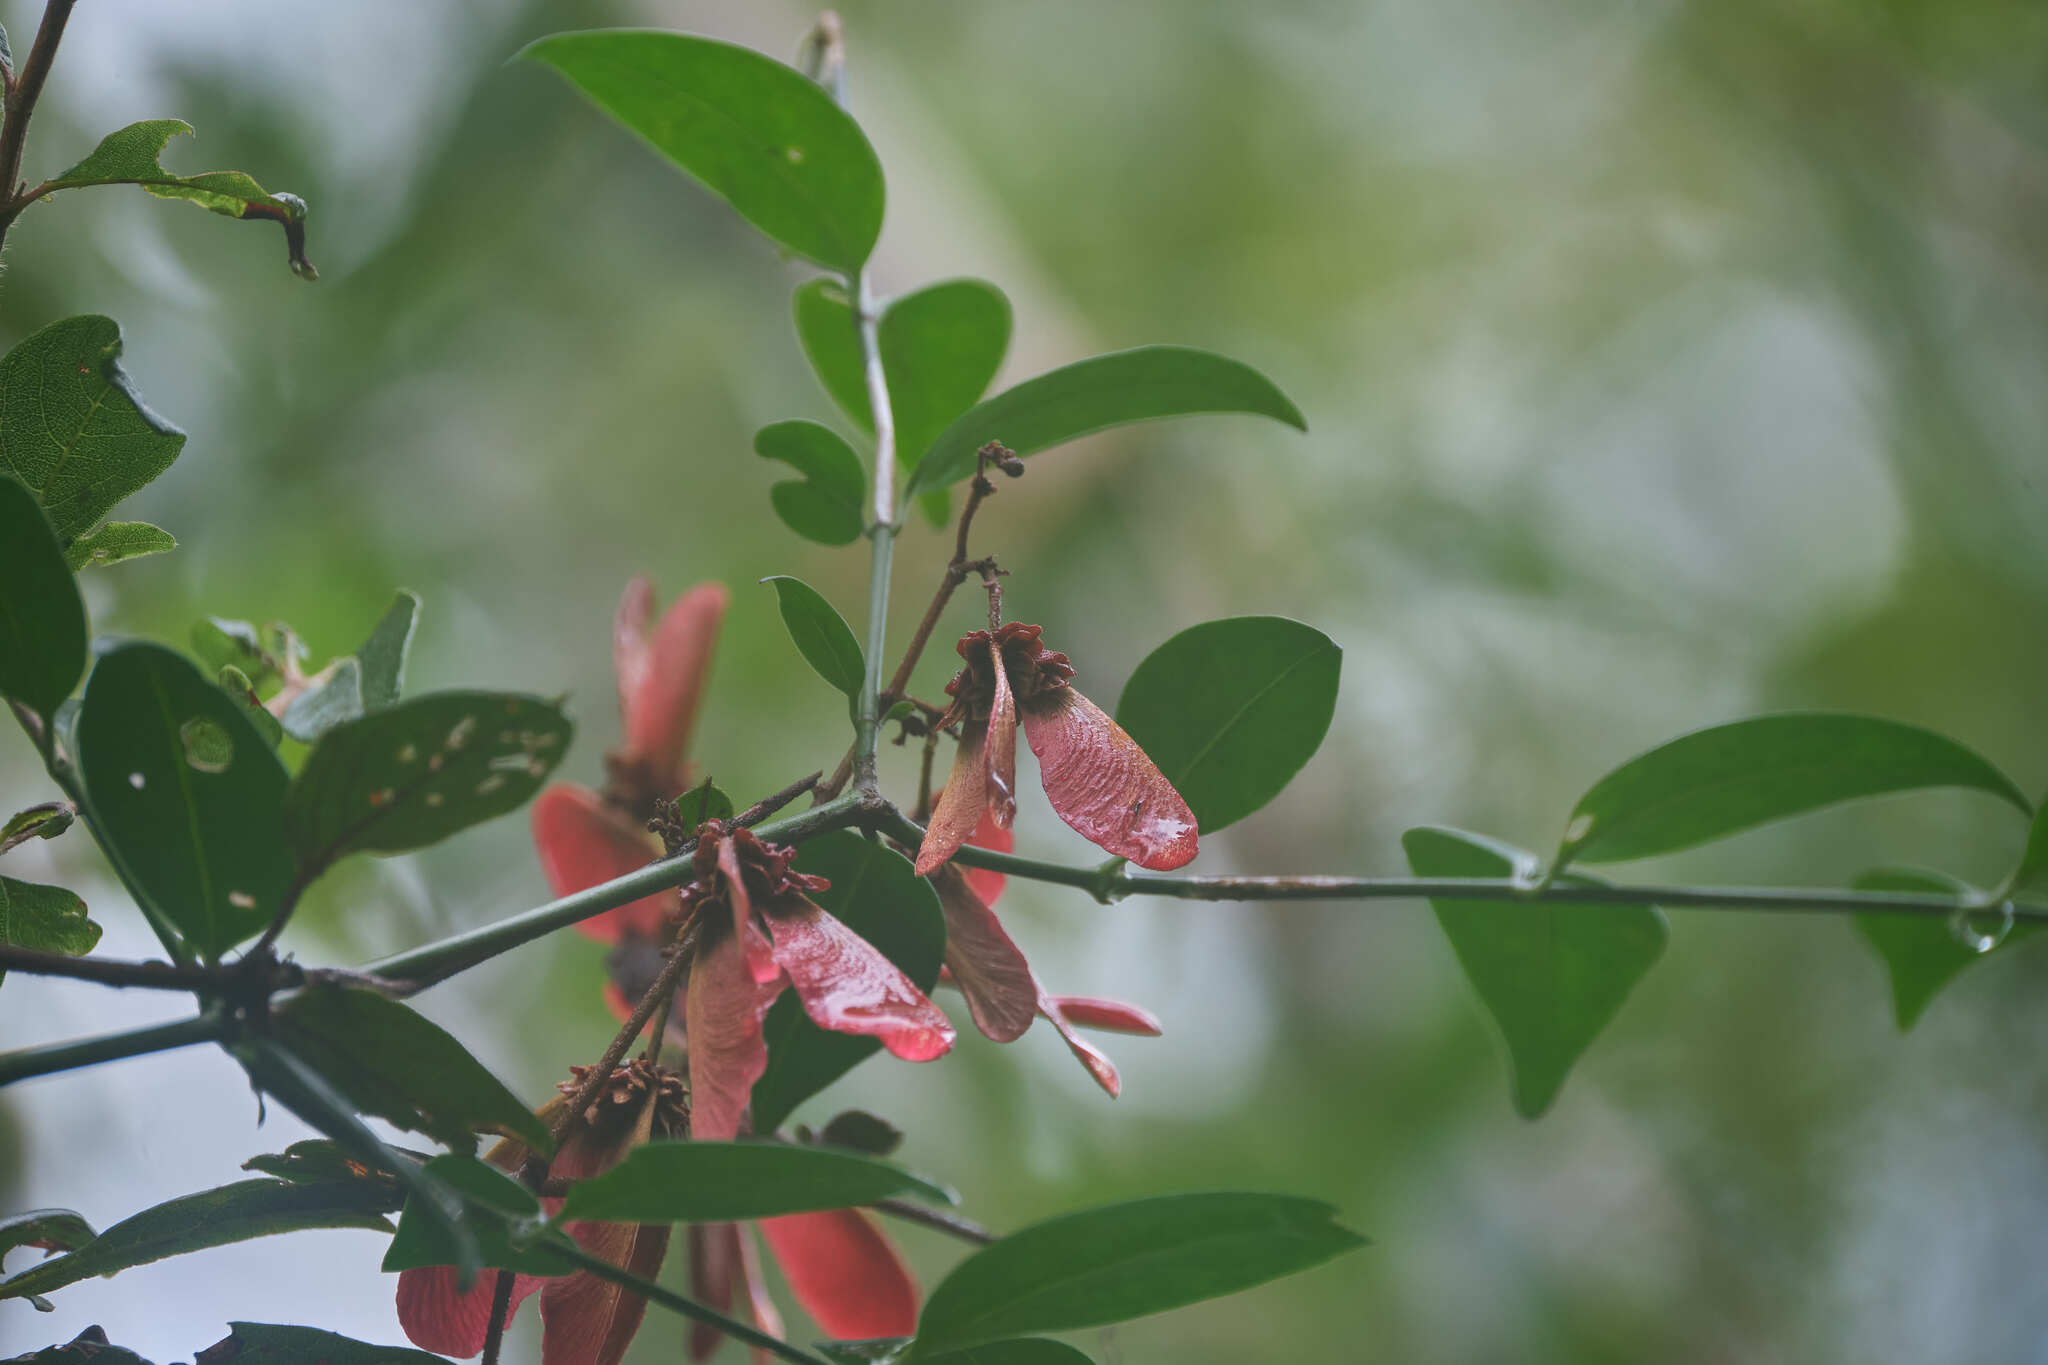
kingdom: Plantae
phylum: Tracheophyta
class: Magnoliopsida
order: Malpighiales
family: Malpighiaceae
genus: Heteropterys
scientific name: Heteropterys brachiata
